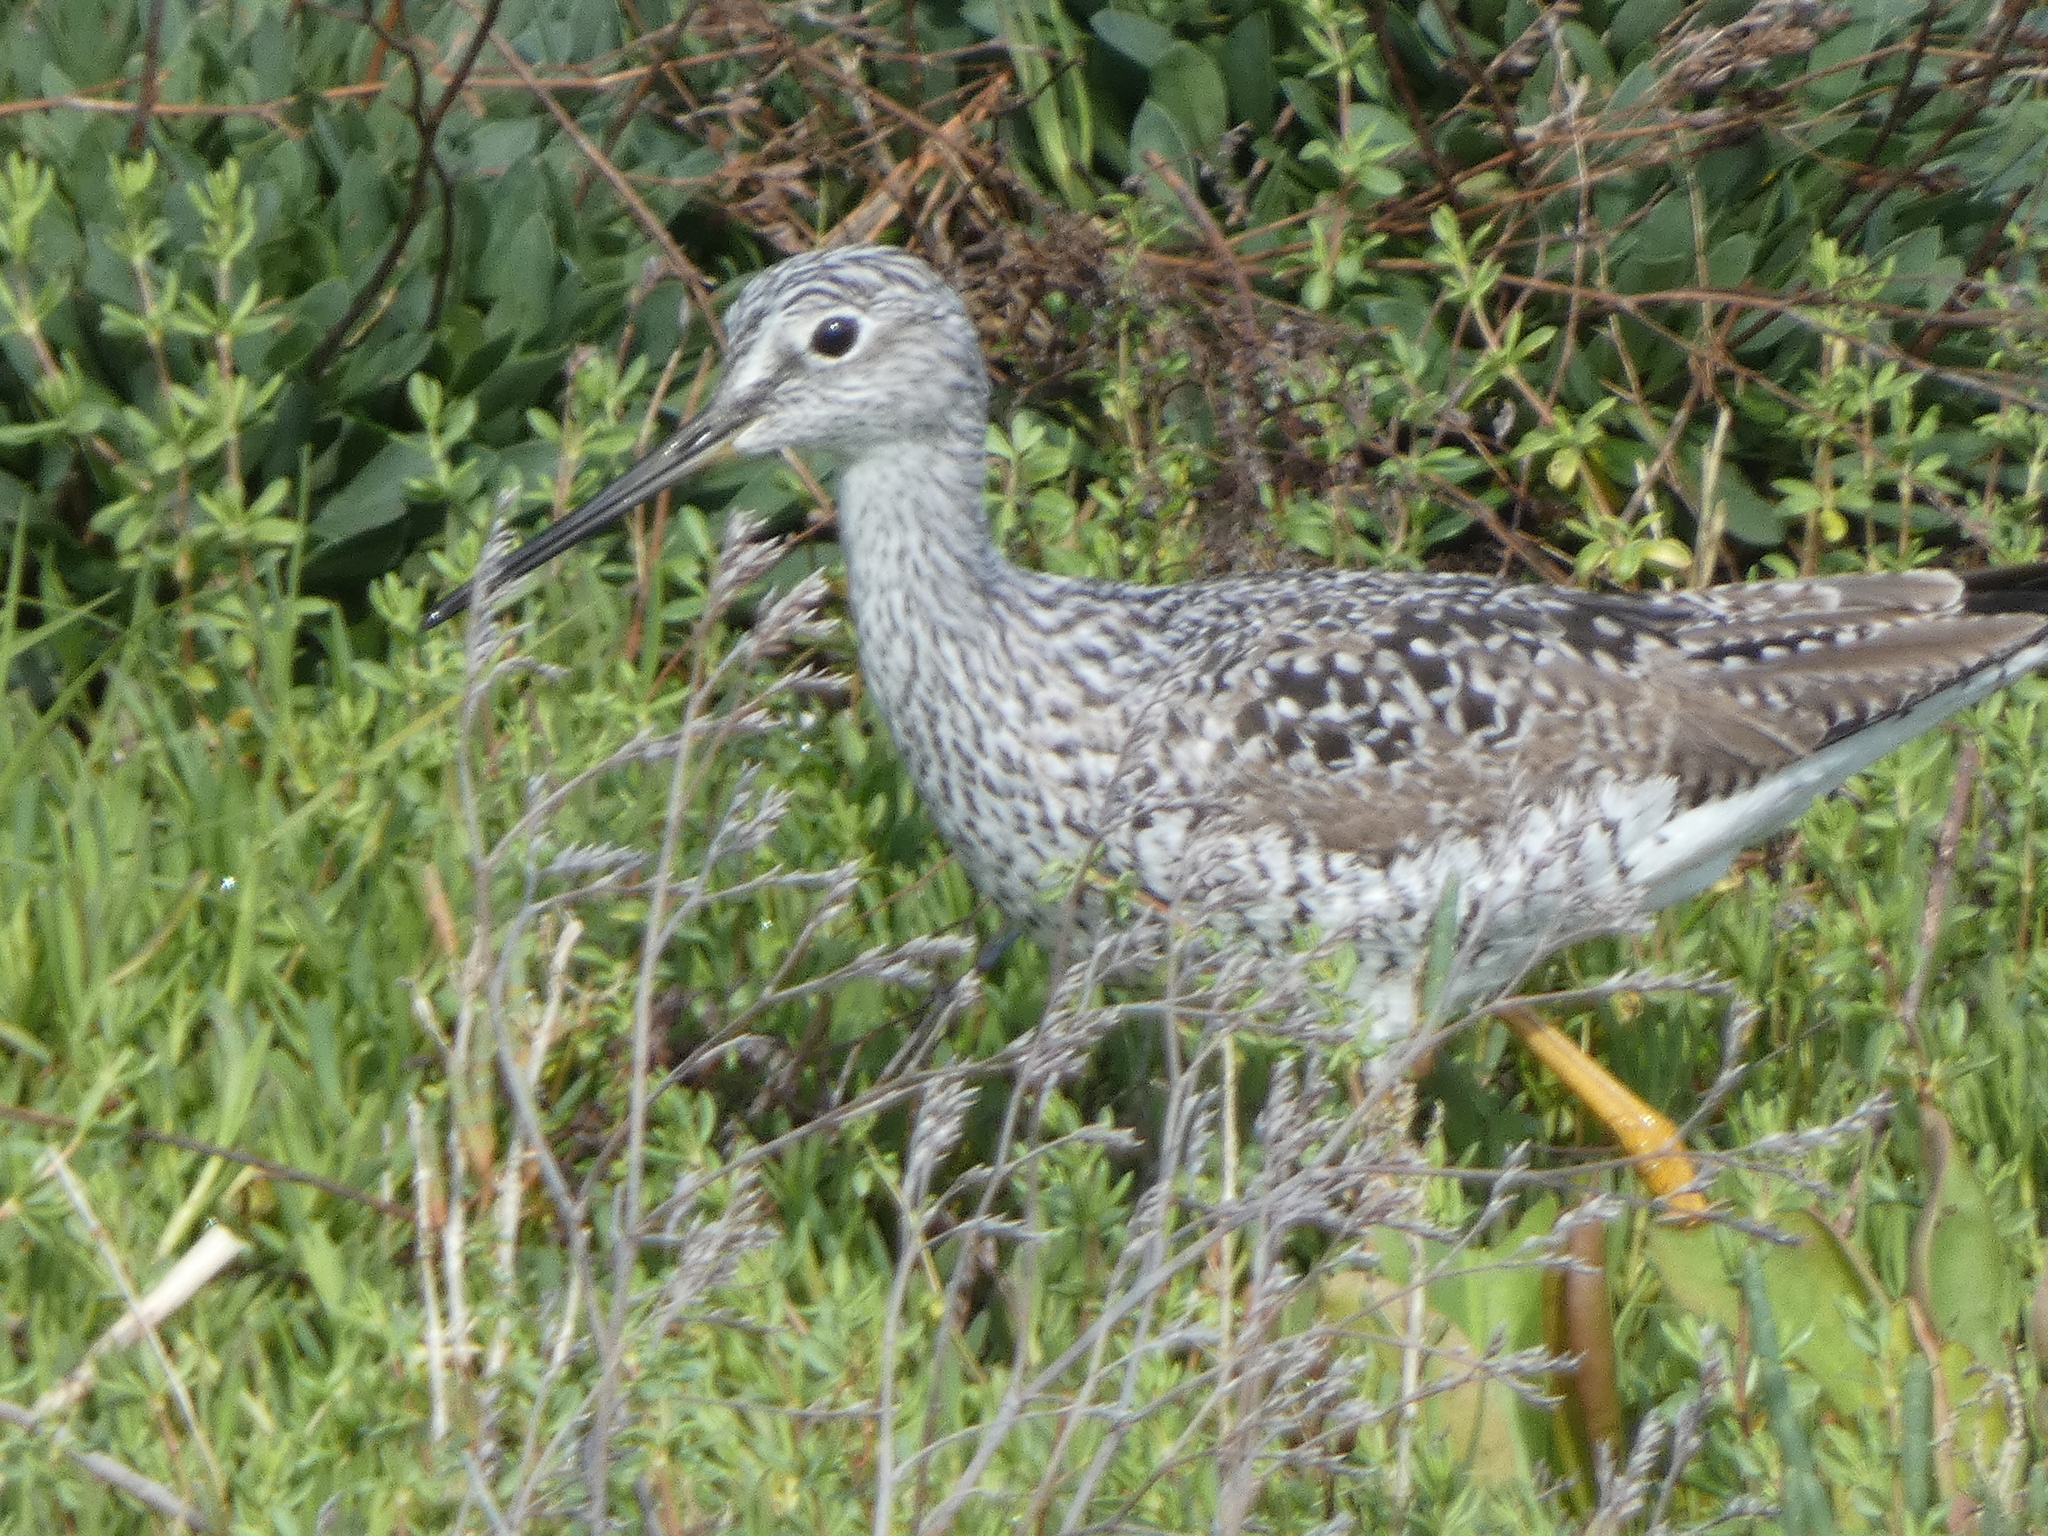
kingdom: Animalia
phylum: Chordata
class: Aves
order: Charadriiformes
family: Scolopacidae
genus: Tringa
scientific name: Tringa melanoleuca
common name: Greater yellowlegs
